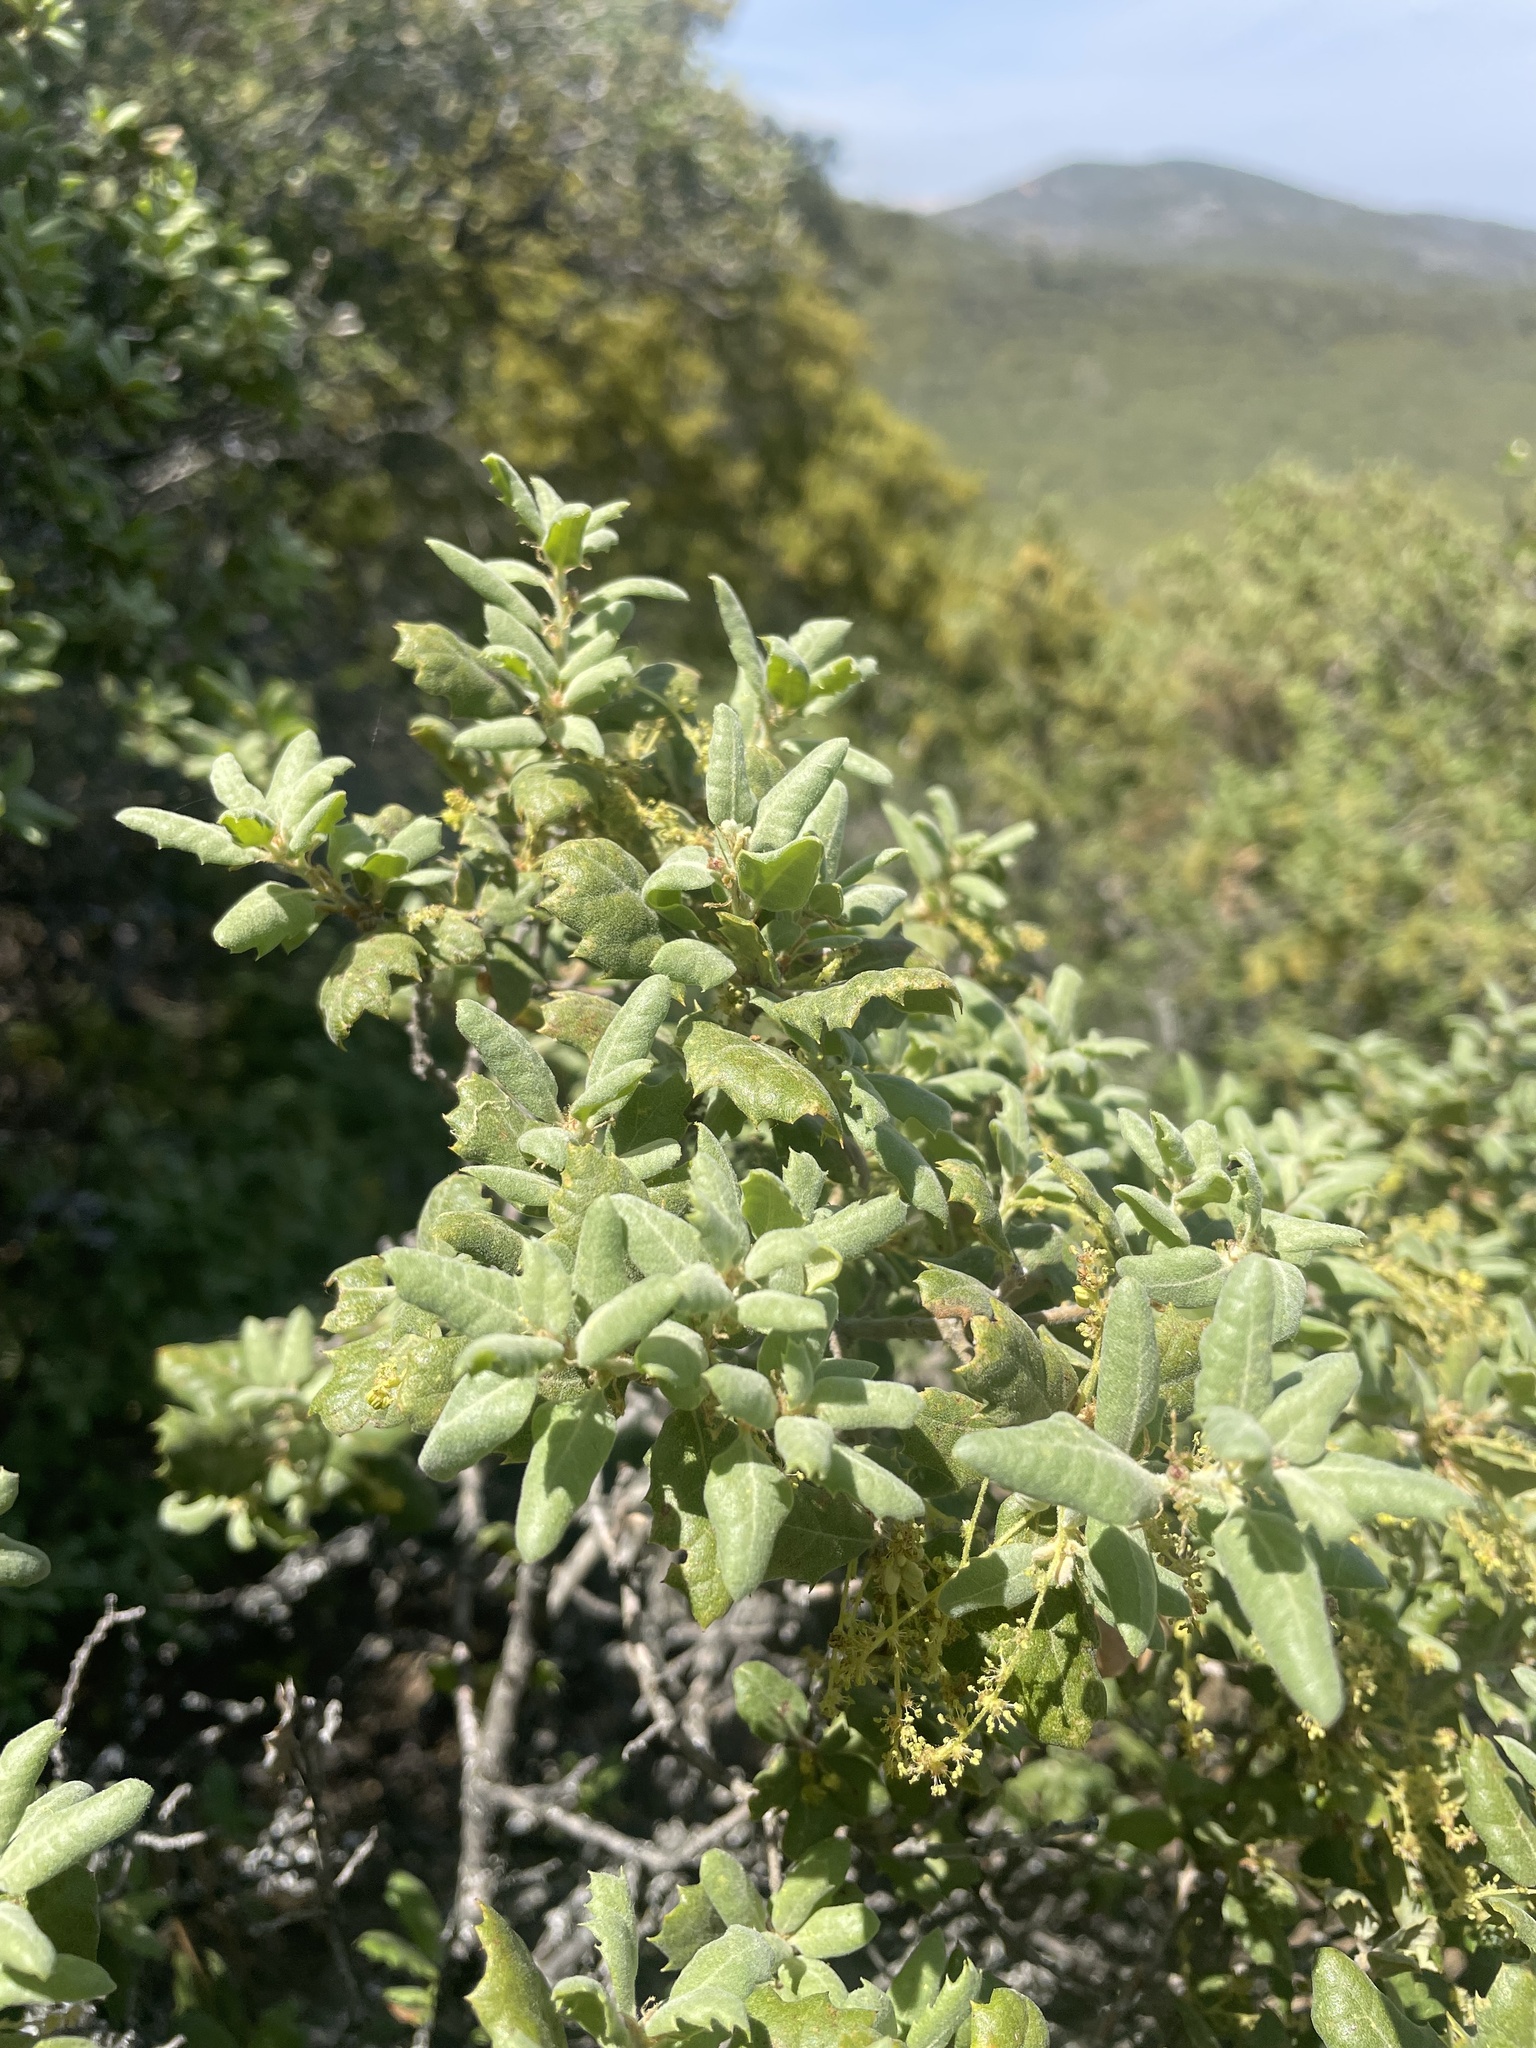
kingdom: Plantae
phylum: Tracheophyta
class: Magnoliopsida
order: Fagales
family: Fagaceae
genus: Quercus
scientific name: Quercus durata
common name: Leather oak
